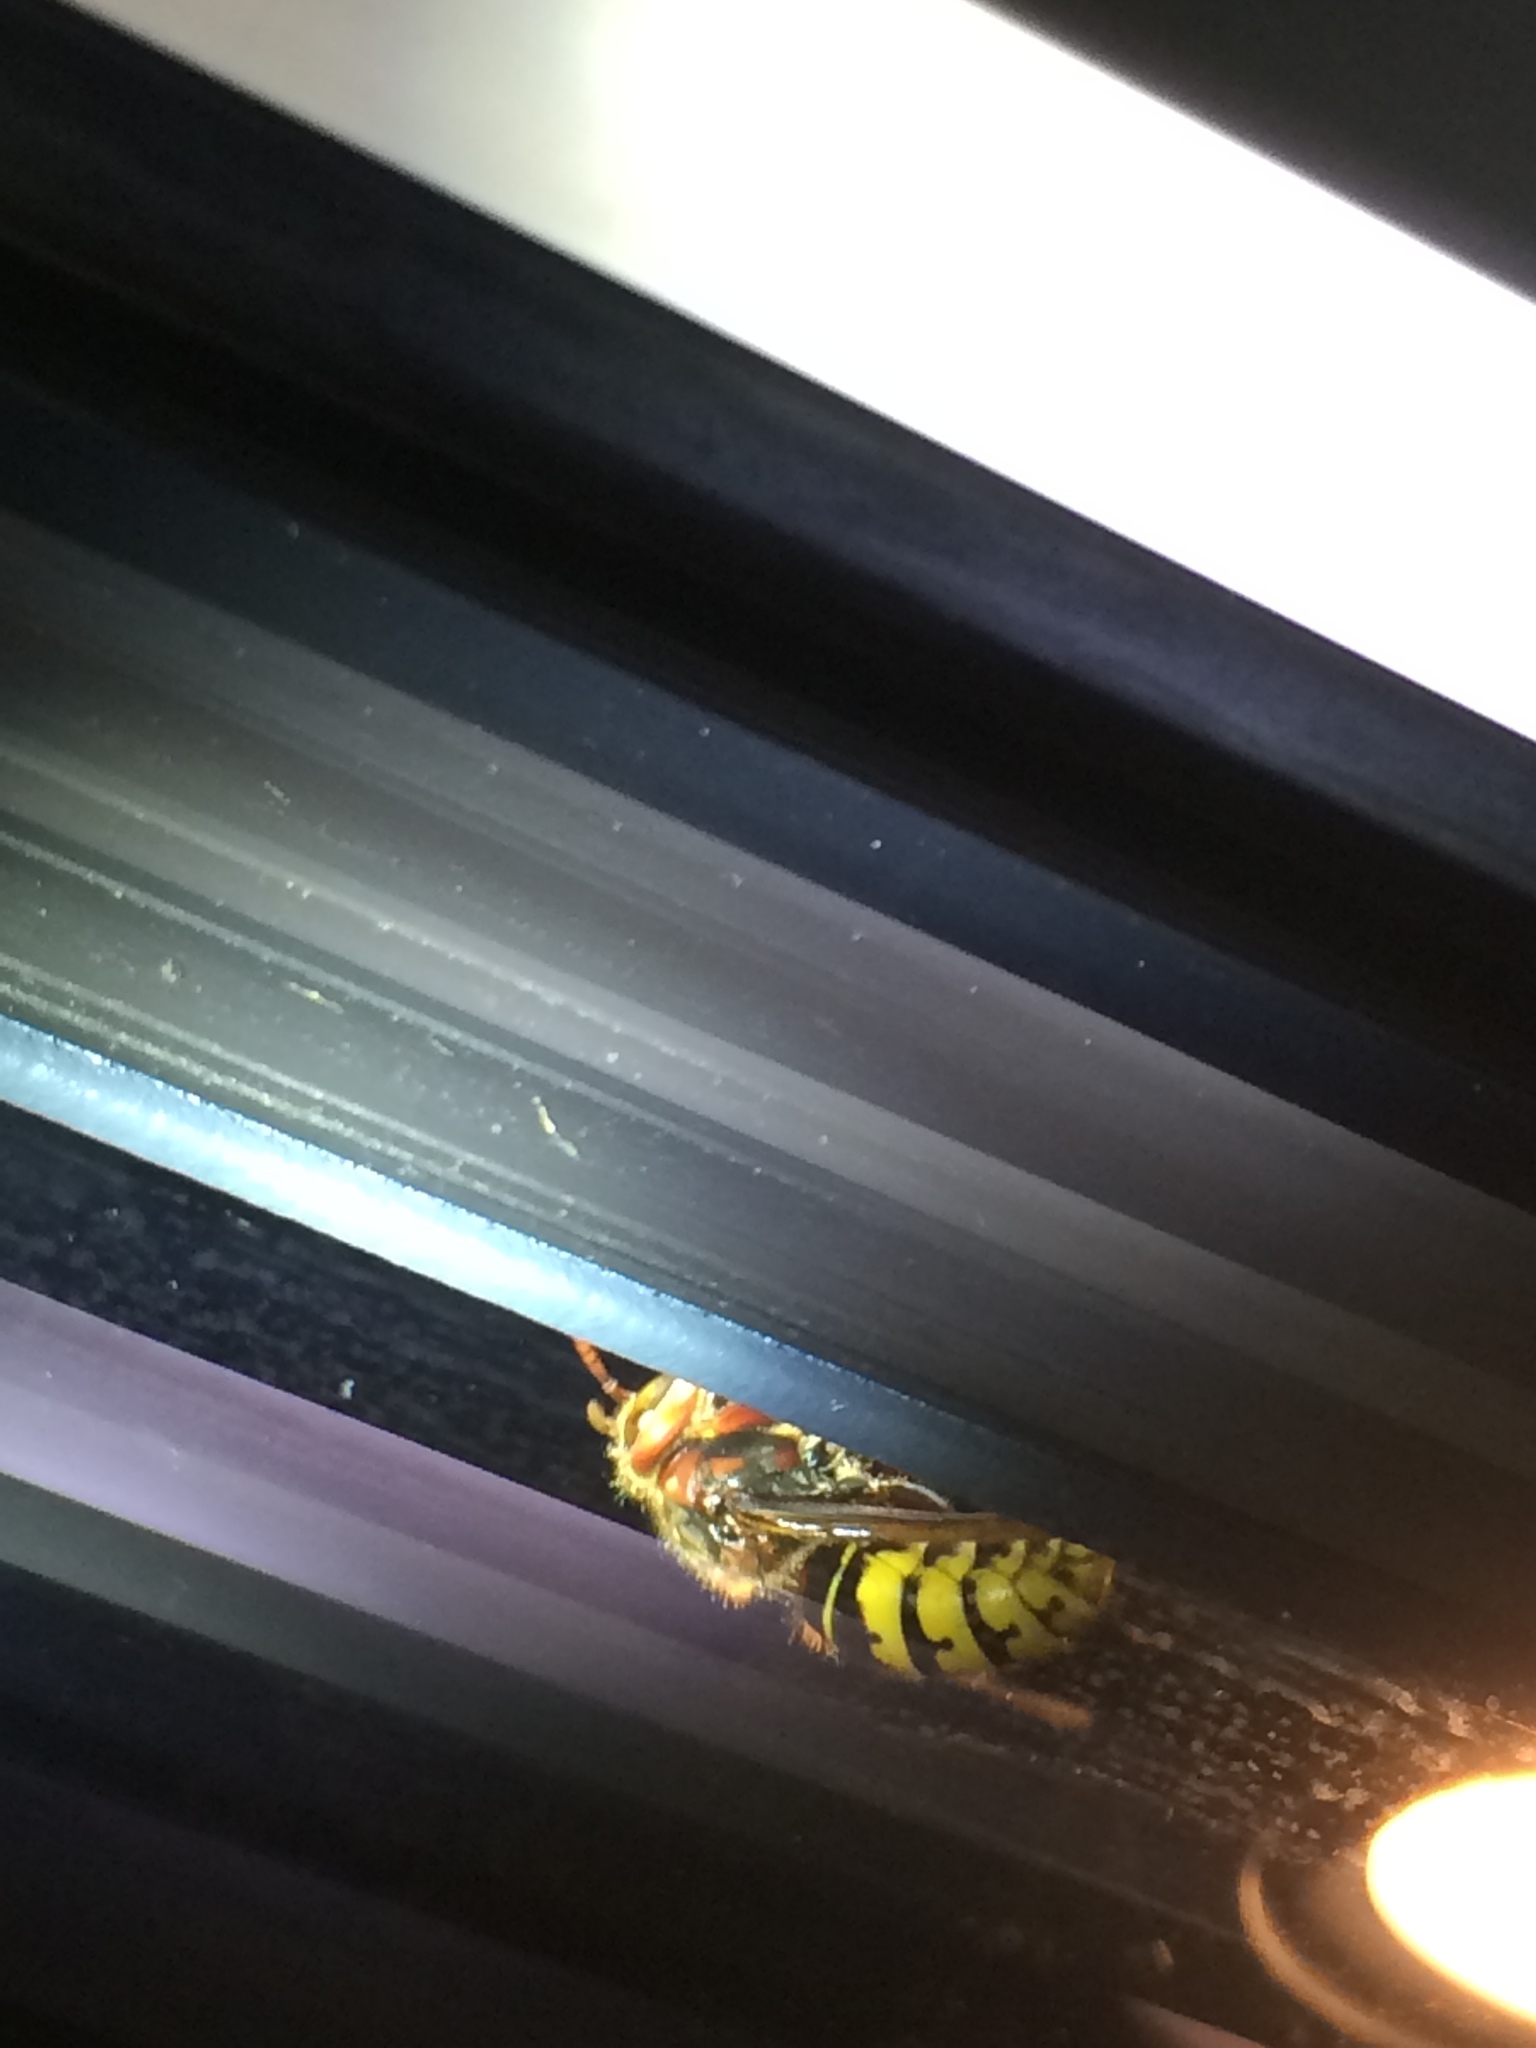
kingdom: Animalia
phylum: Arthropoda
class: Insecta
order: Hymenoptera
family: Vespidae
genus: Vespa
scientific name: Vespa crabro
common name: Hornet
